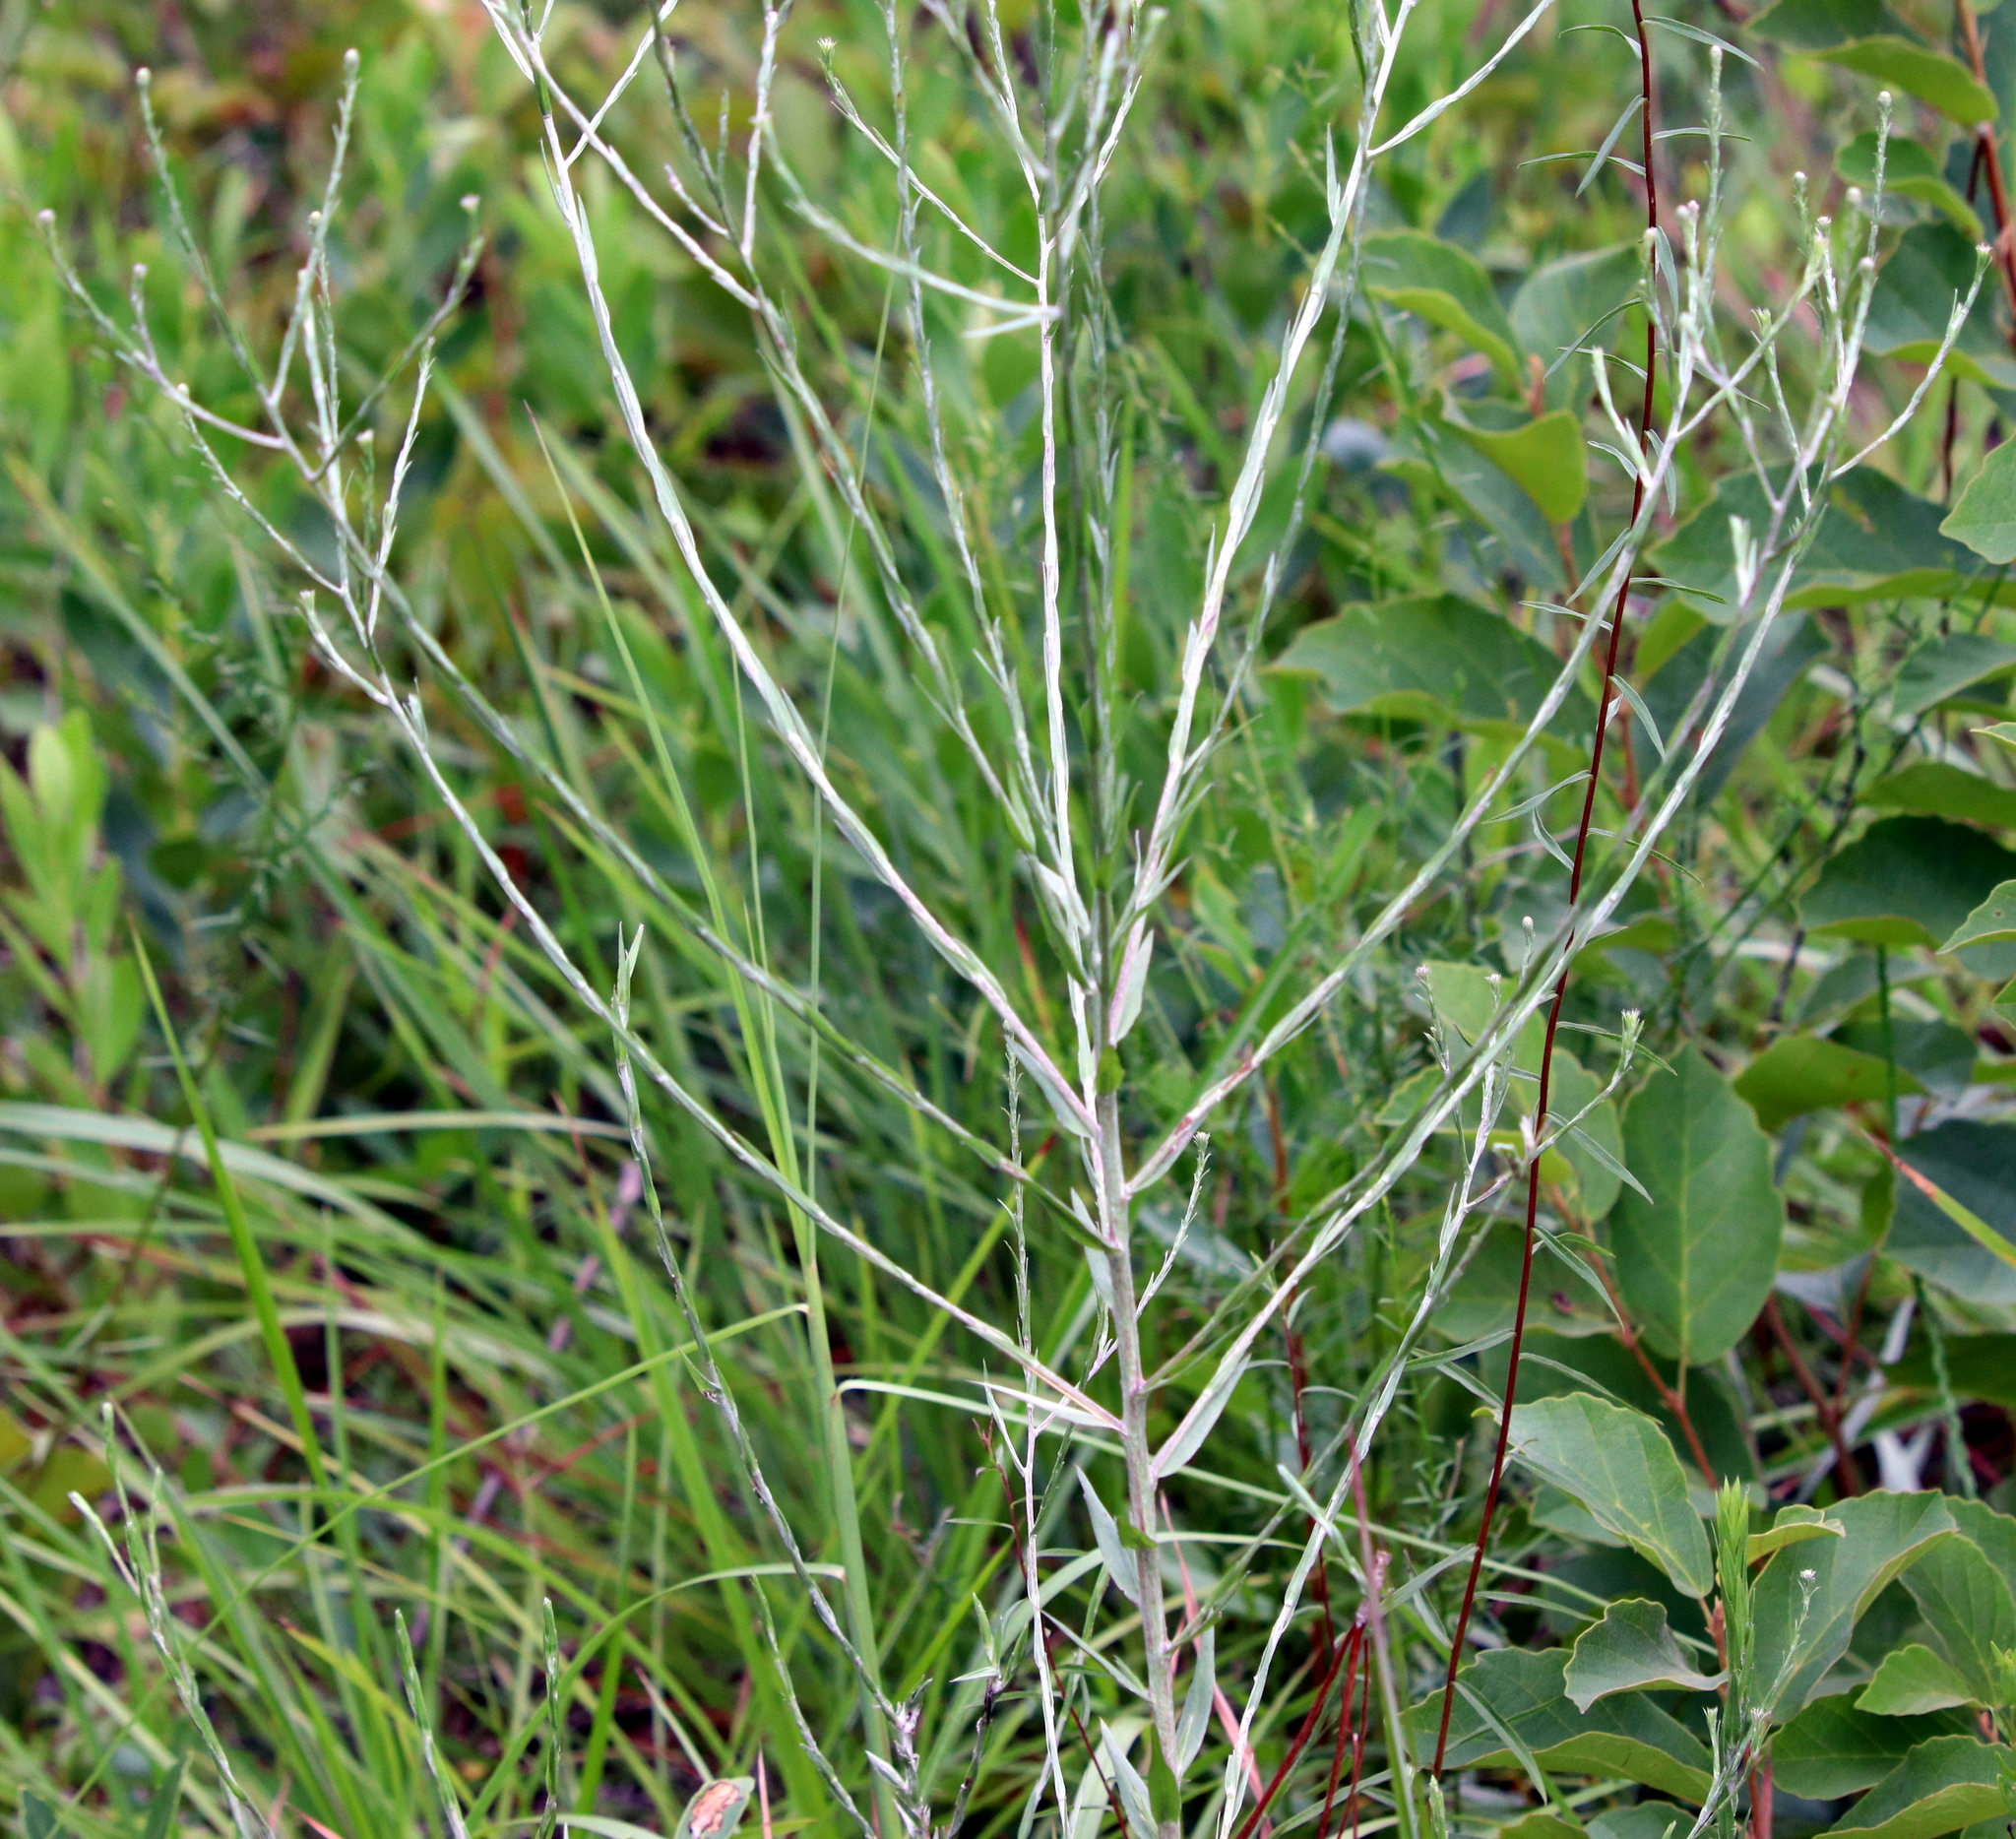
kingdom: Plantae
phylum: Tracheophyta
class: Magnoliopsida
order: Asterales
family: Asteraceae
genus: Pityopsis
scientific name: Pityopsis graminifolia
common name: Grass-leaf golden-aster
